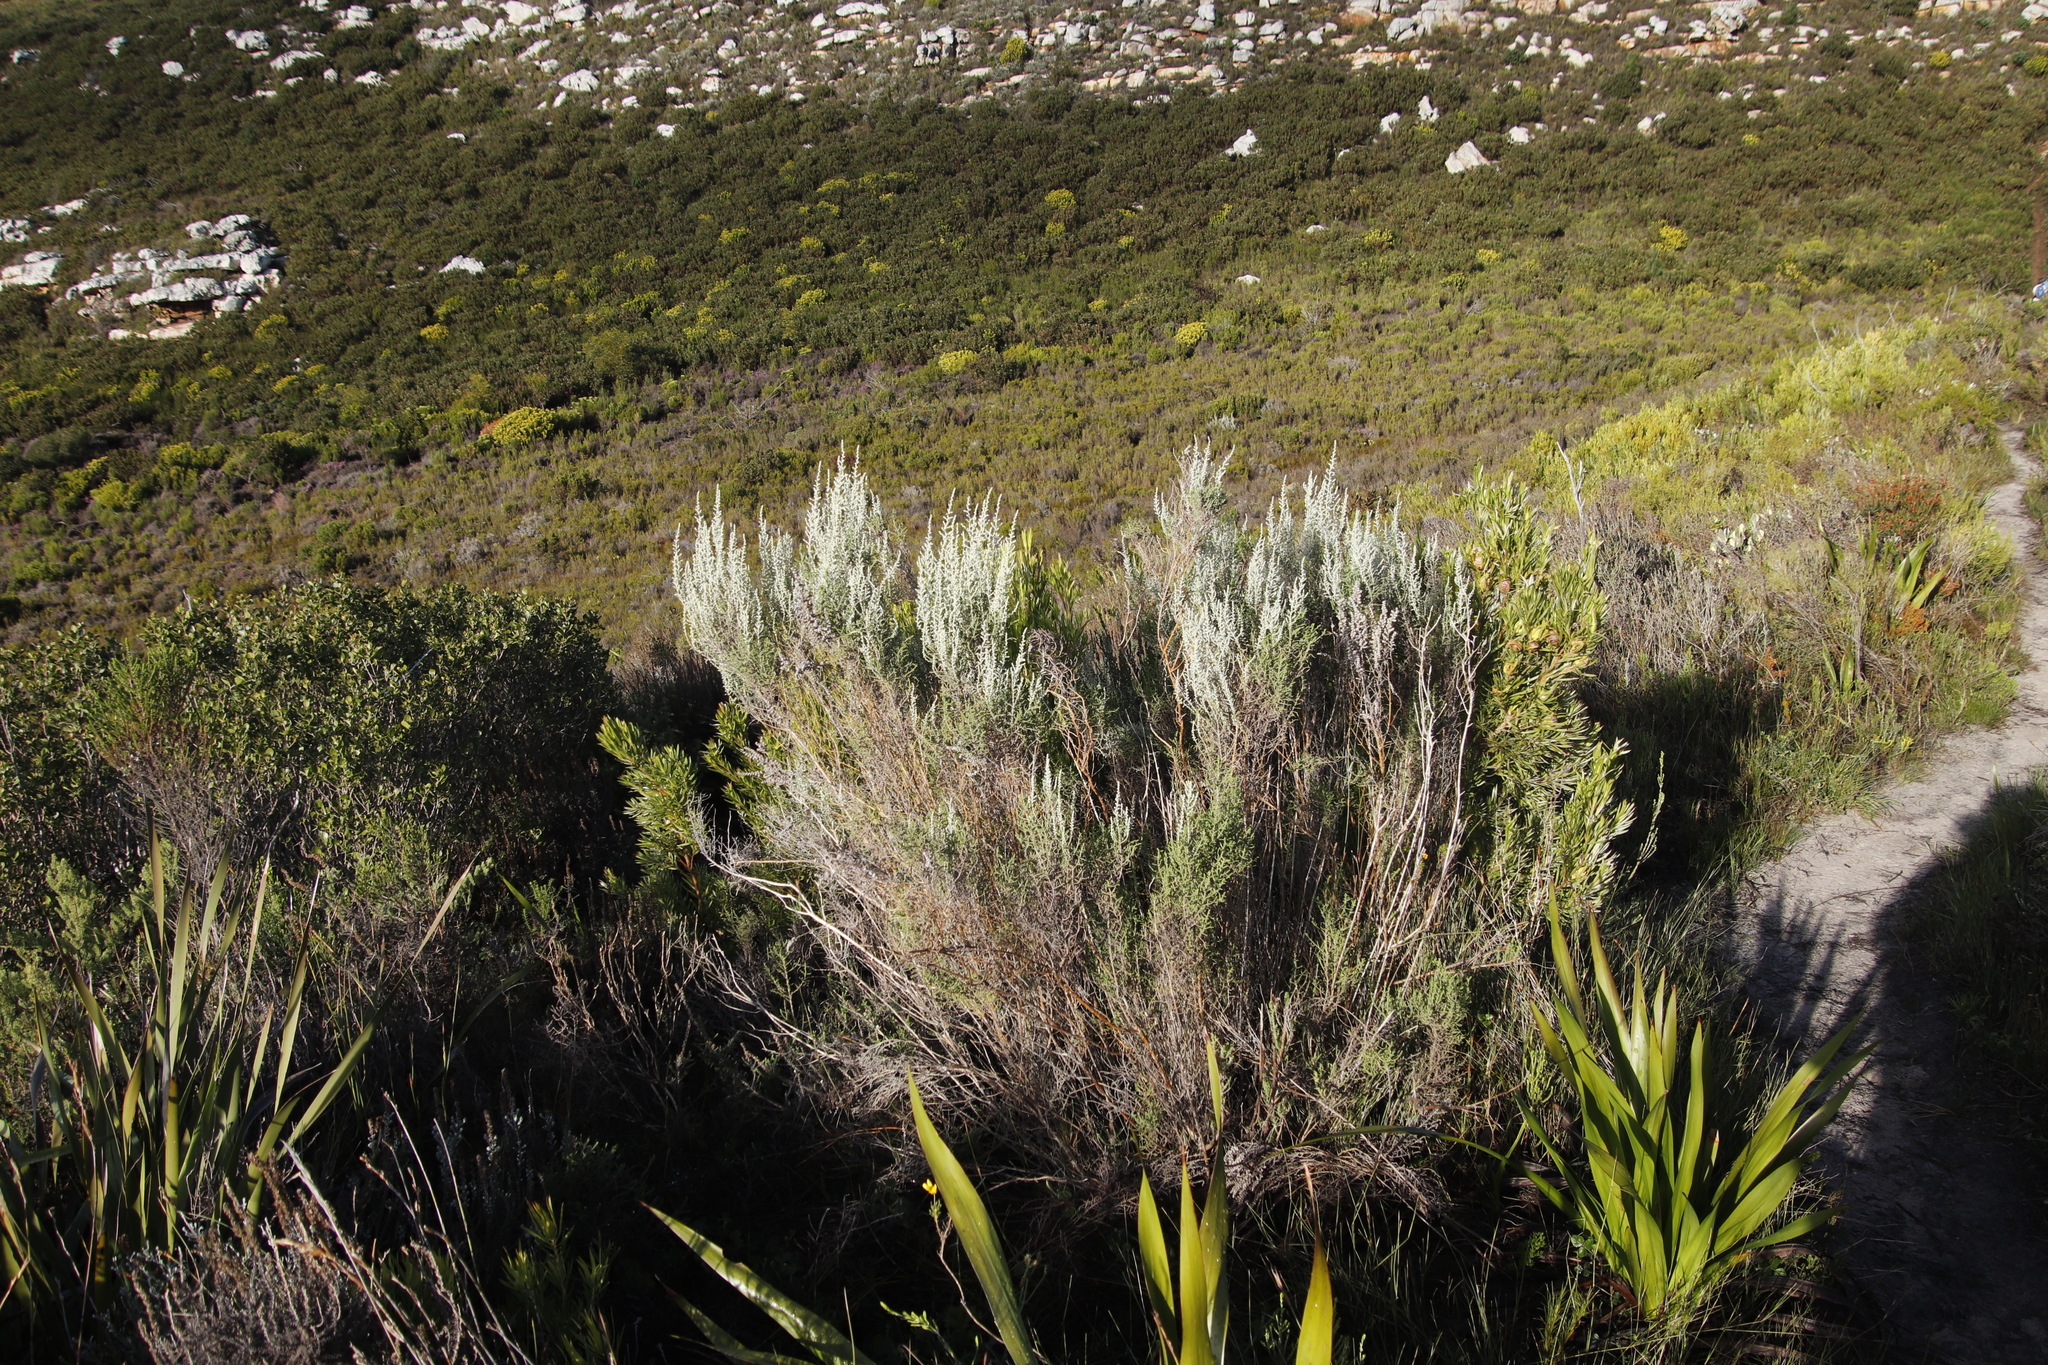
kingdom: Plantae
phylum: Tracheophyta
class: Magnoliopsida
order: Asterales
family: Asteraceae
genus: Seriphium
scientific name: Seriphium plumosum
